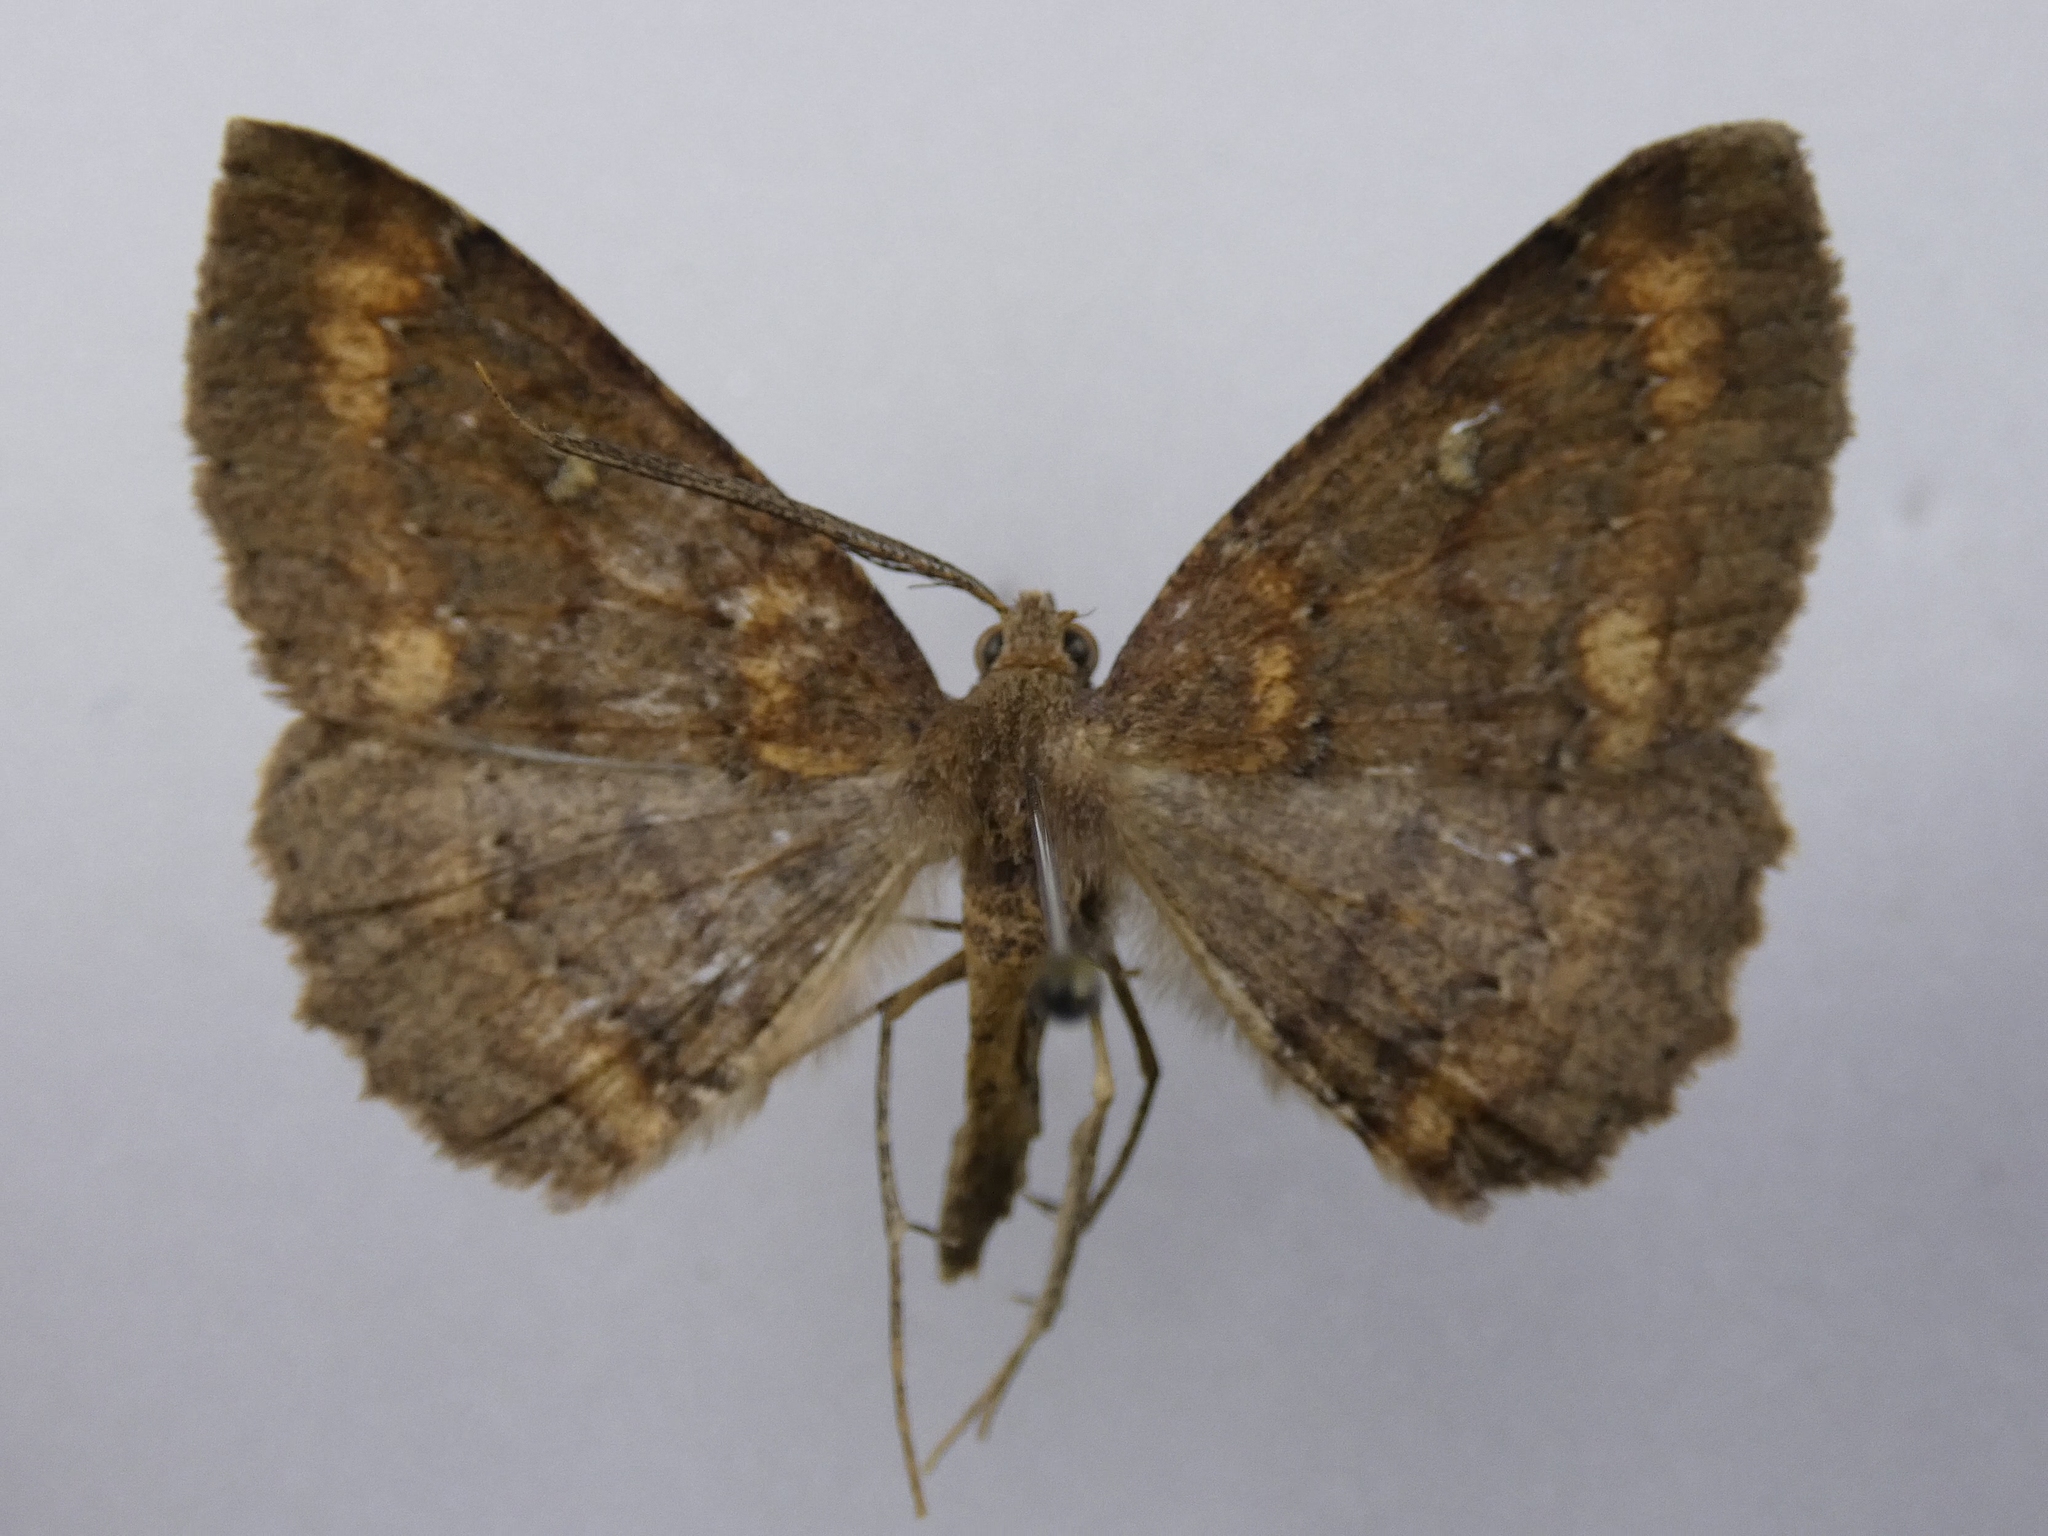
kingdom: Animalia
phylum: Arthropoda
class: Insecta
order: Lepidoptera
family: Geometridae
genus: Cleora
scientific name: Cleora scriptaria
